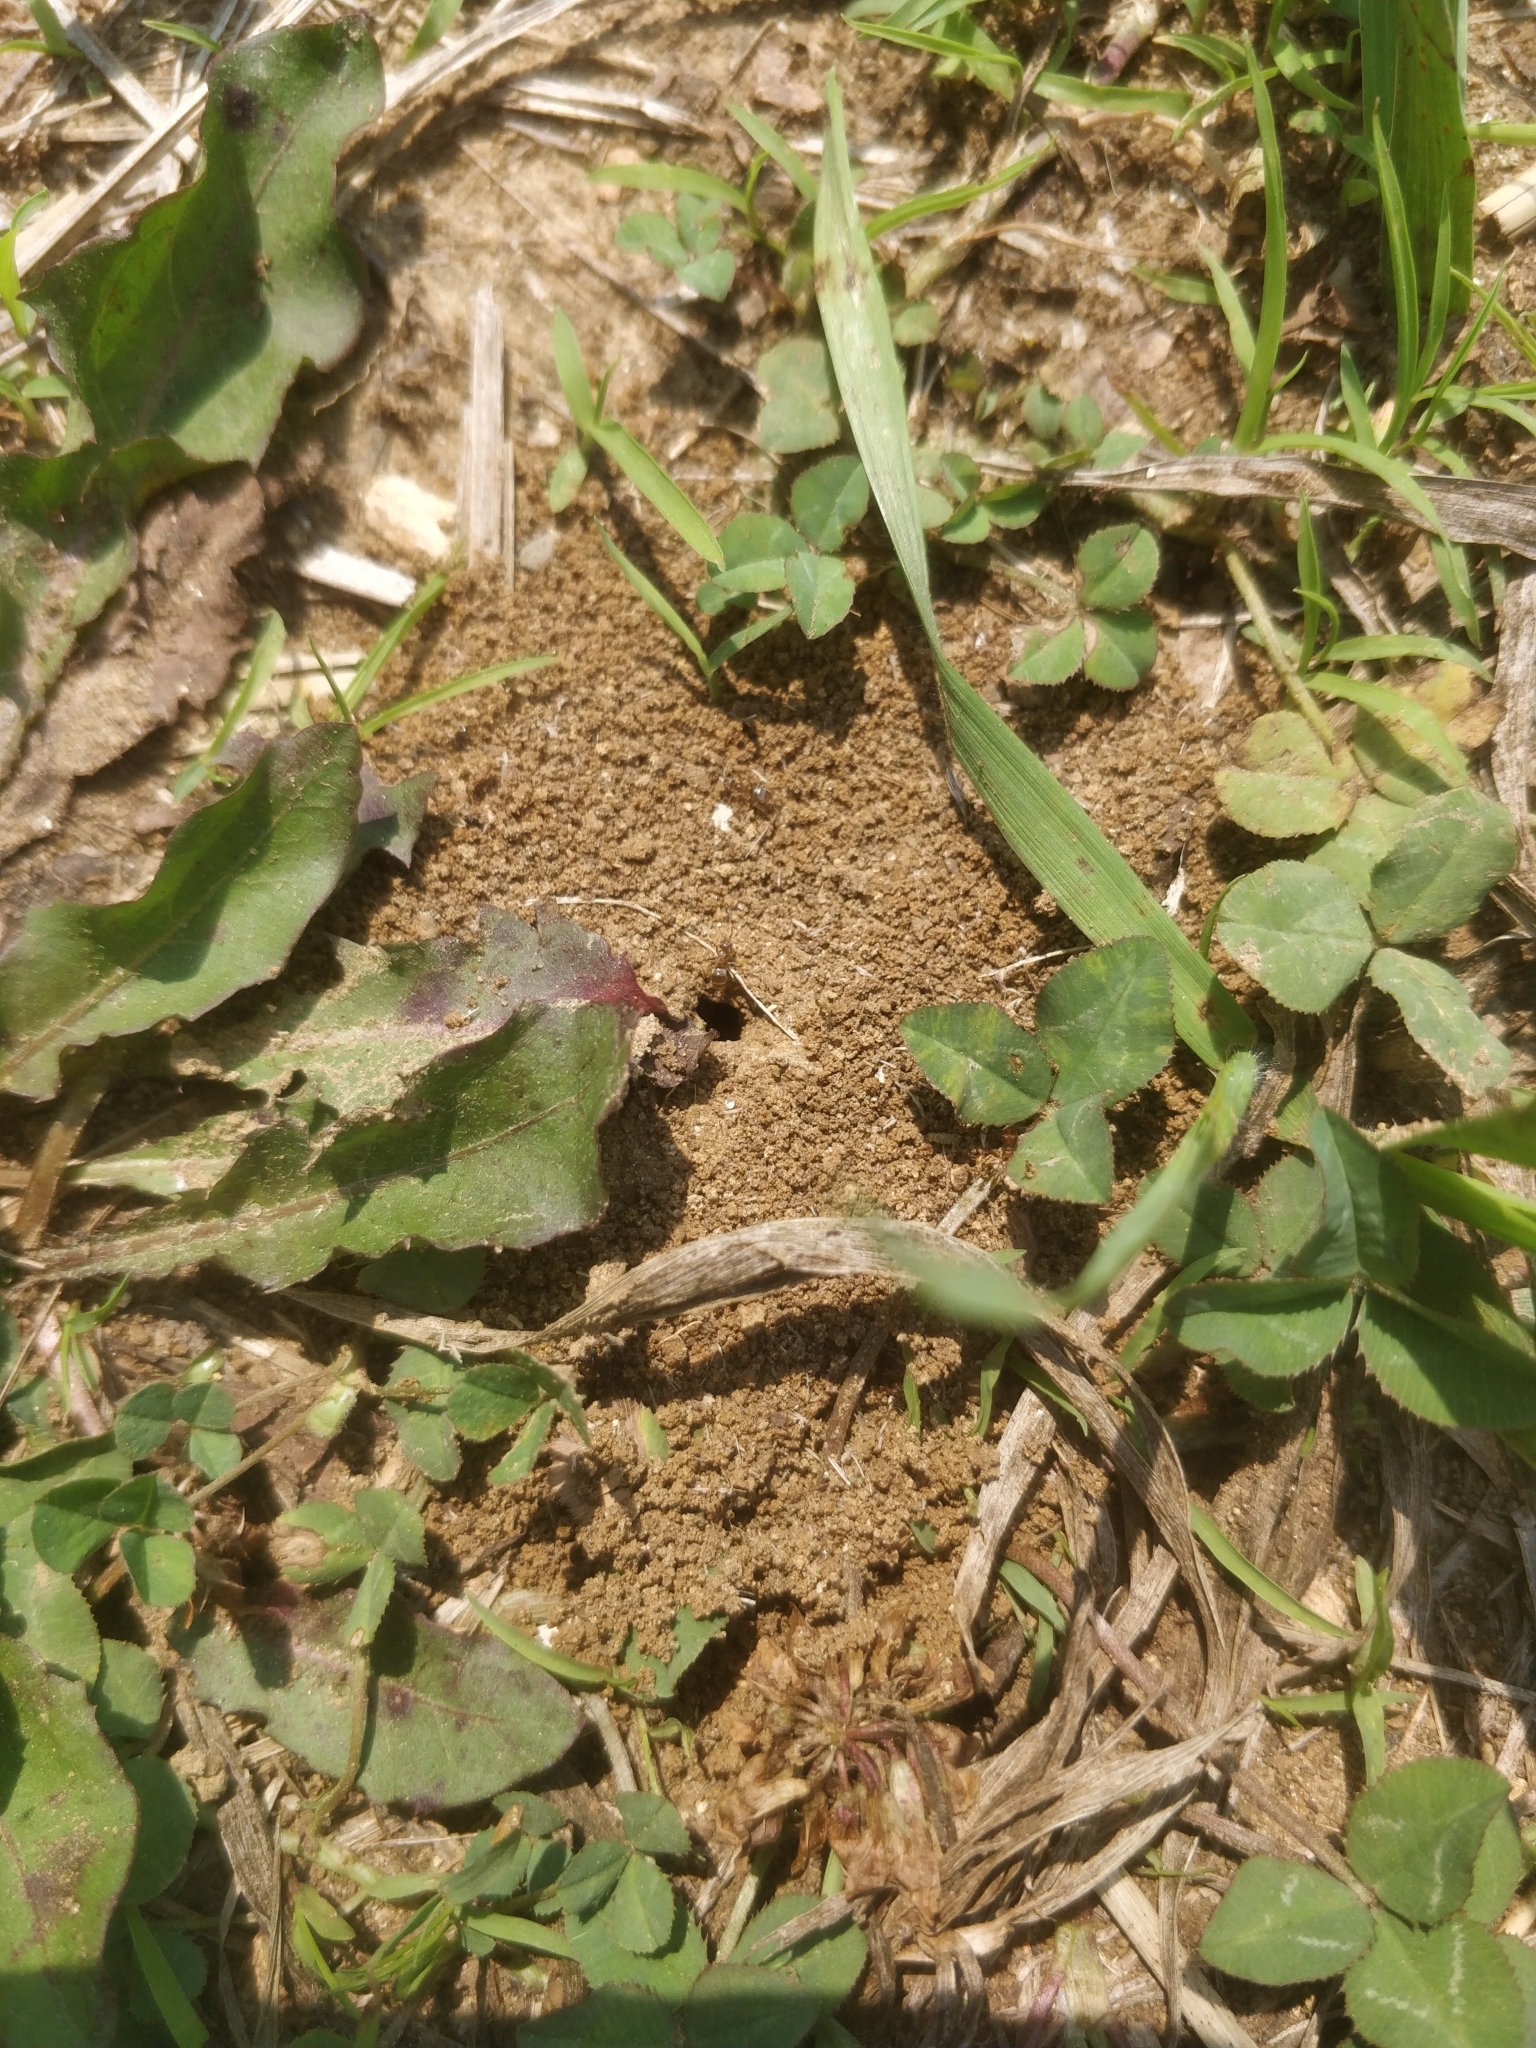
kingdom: Animalia
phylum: Arthropoda
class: Insecta
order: Hymenoptera
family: Formicidae
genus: Lasius
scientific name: Lasius neoniger
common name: Turfgrass ant
